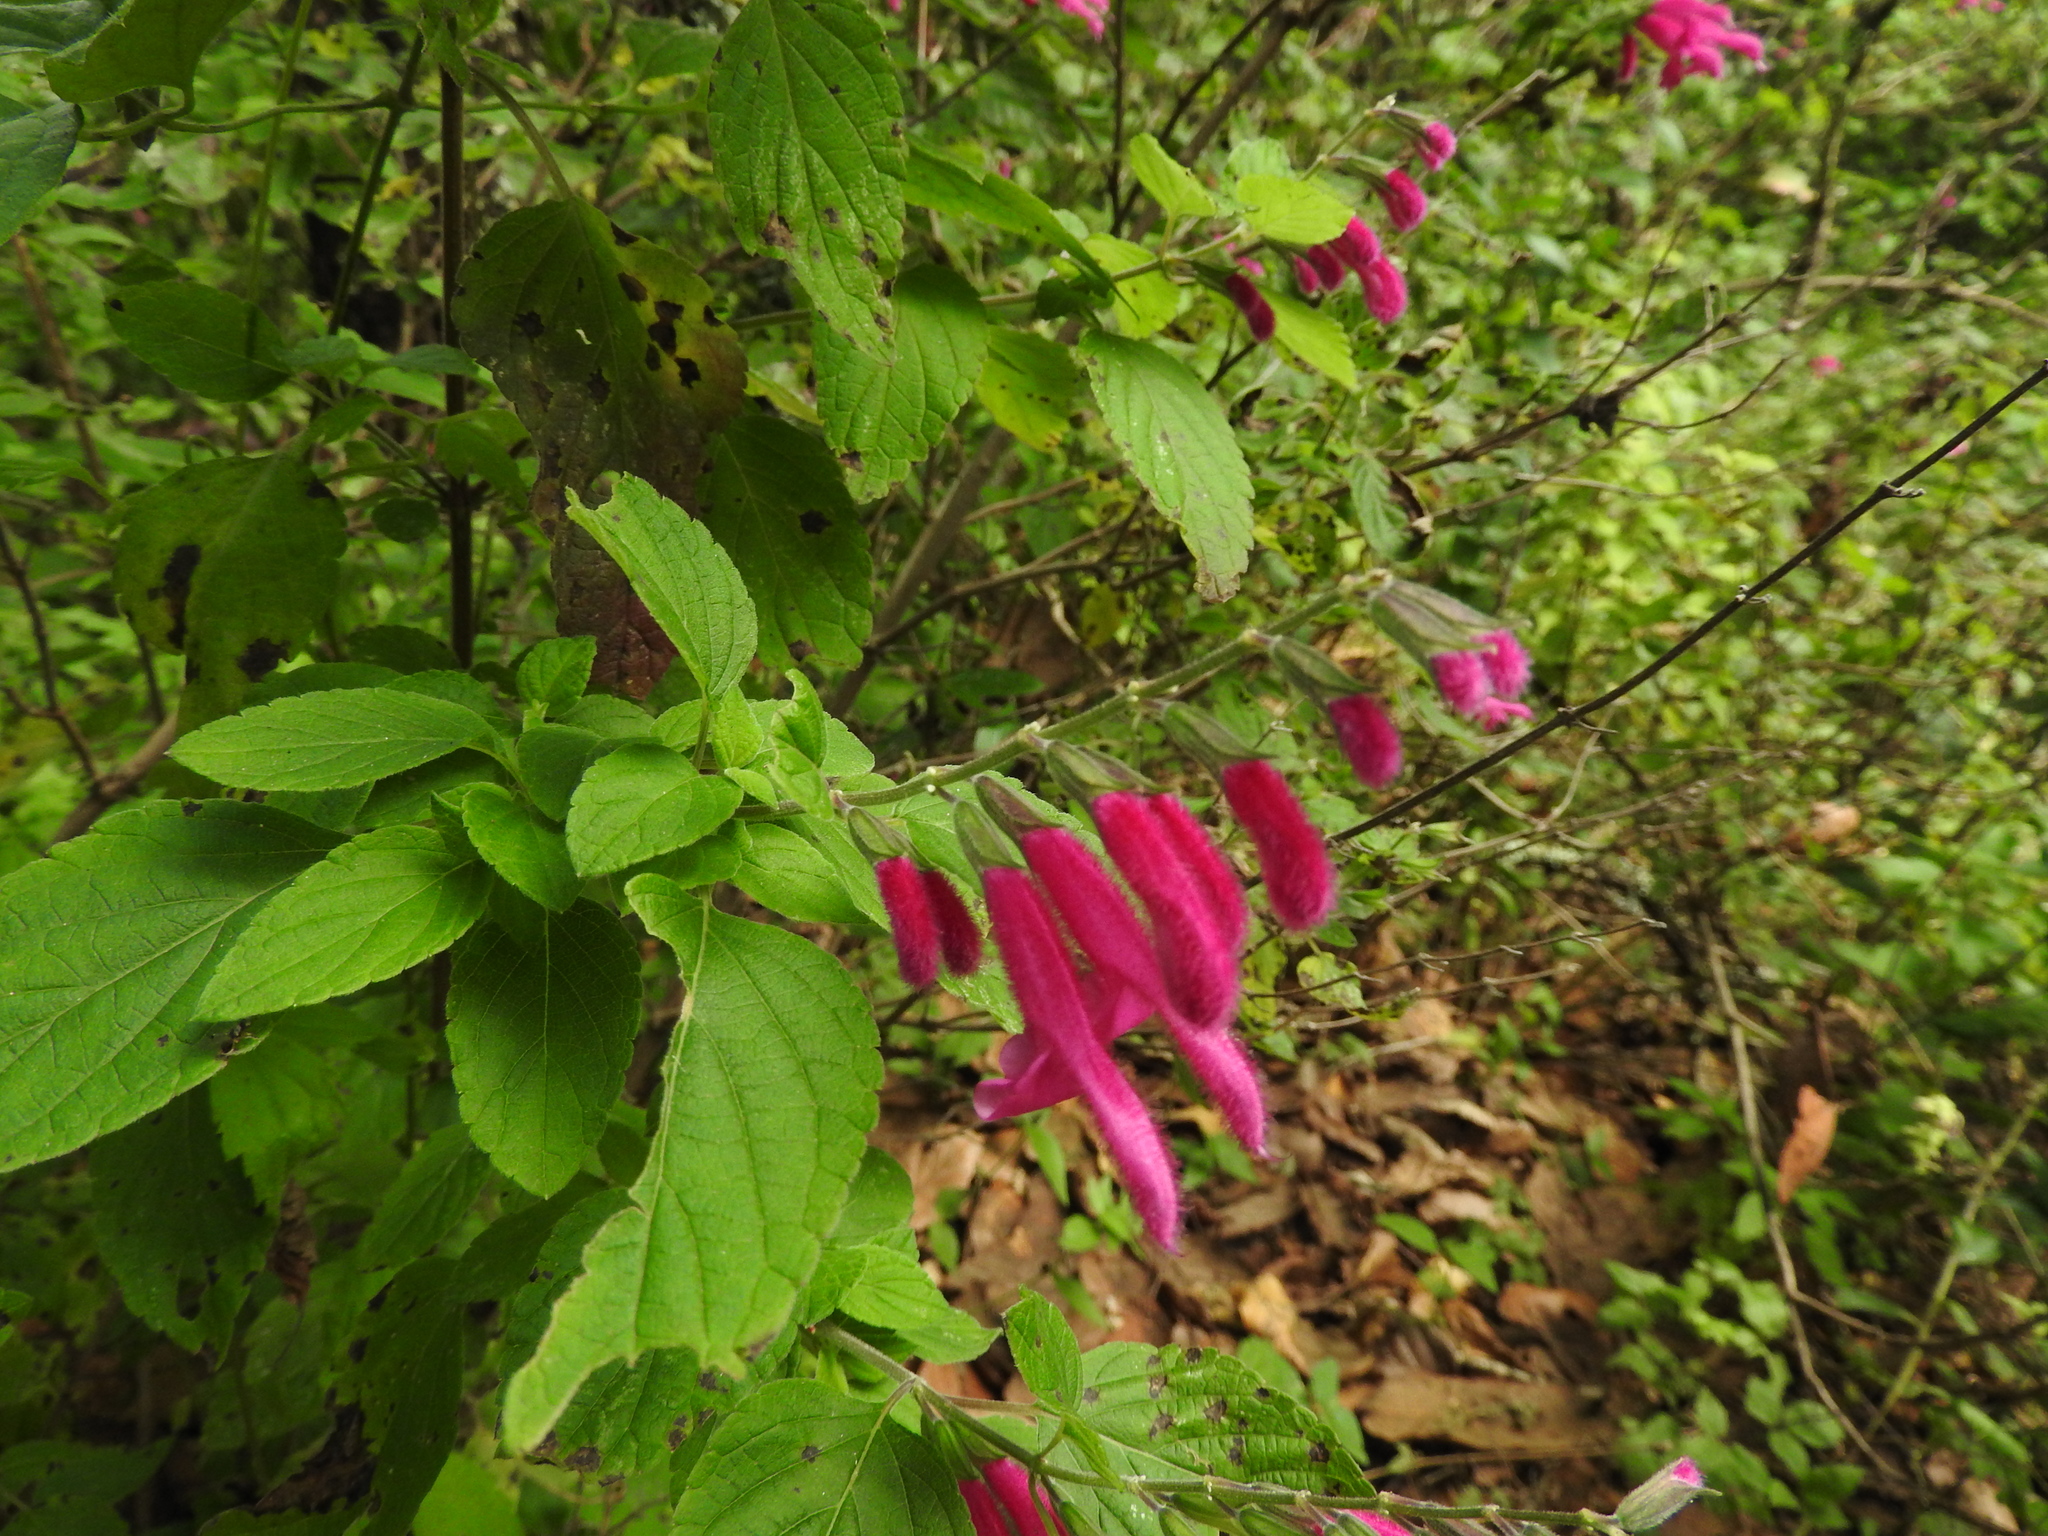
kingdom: Plantae
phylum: Tracheophyta
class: Magnoliopsida
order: Lamiales
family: Lamiaceae
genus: Salvia
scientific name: Salvia curviflora
